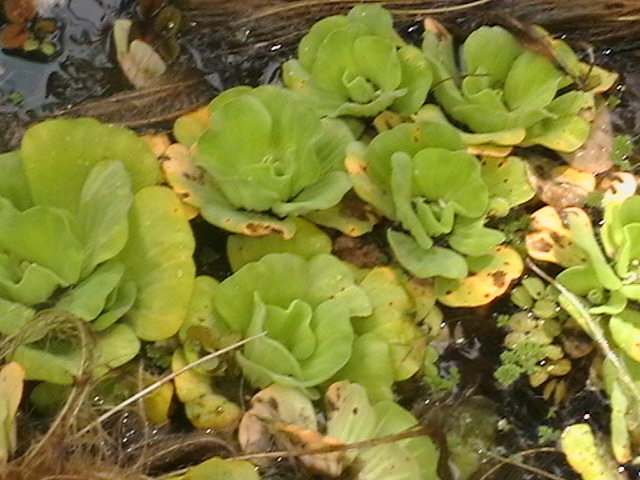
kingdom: Plantae
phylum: Tracheophyta
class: Liliopsida
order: Alismatales
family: Araceae
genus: Pistia
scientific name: Pistia stratiotes
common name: Water lettuce
